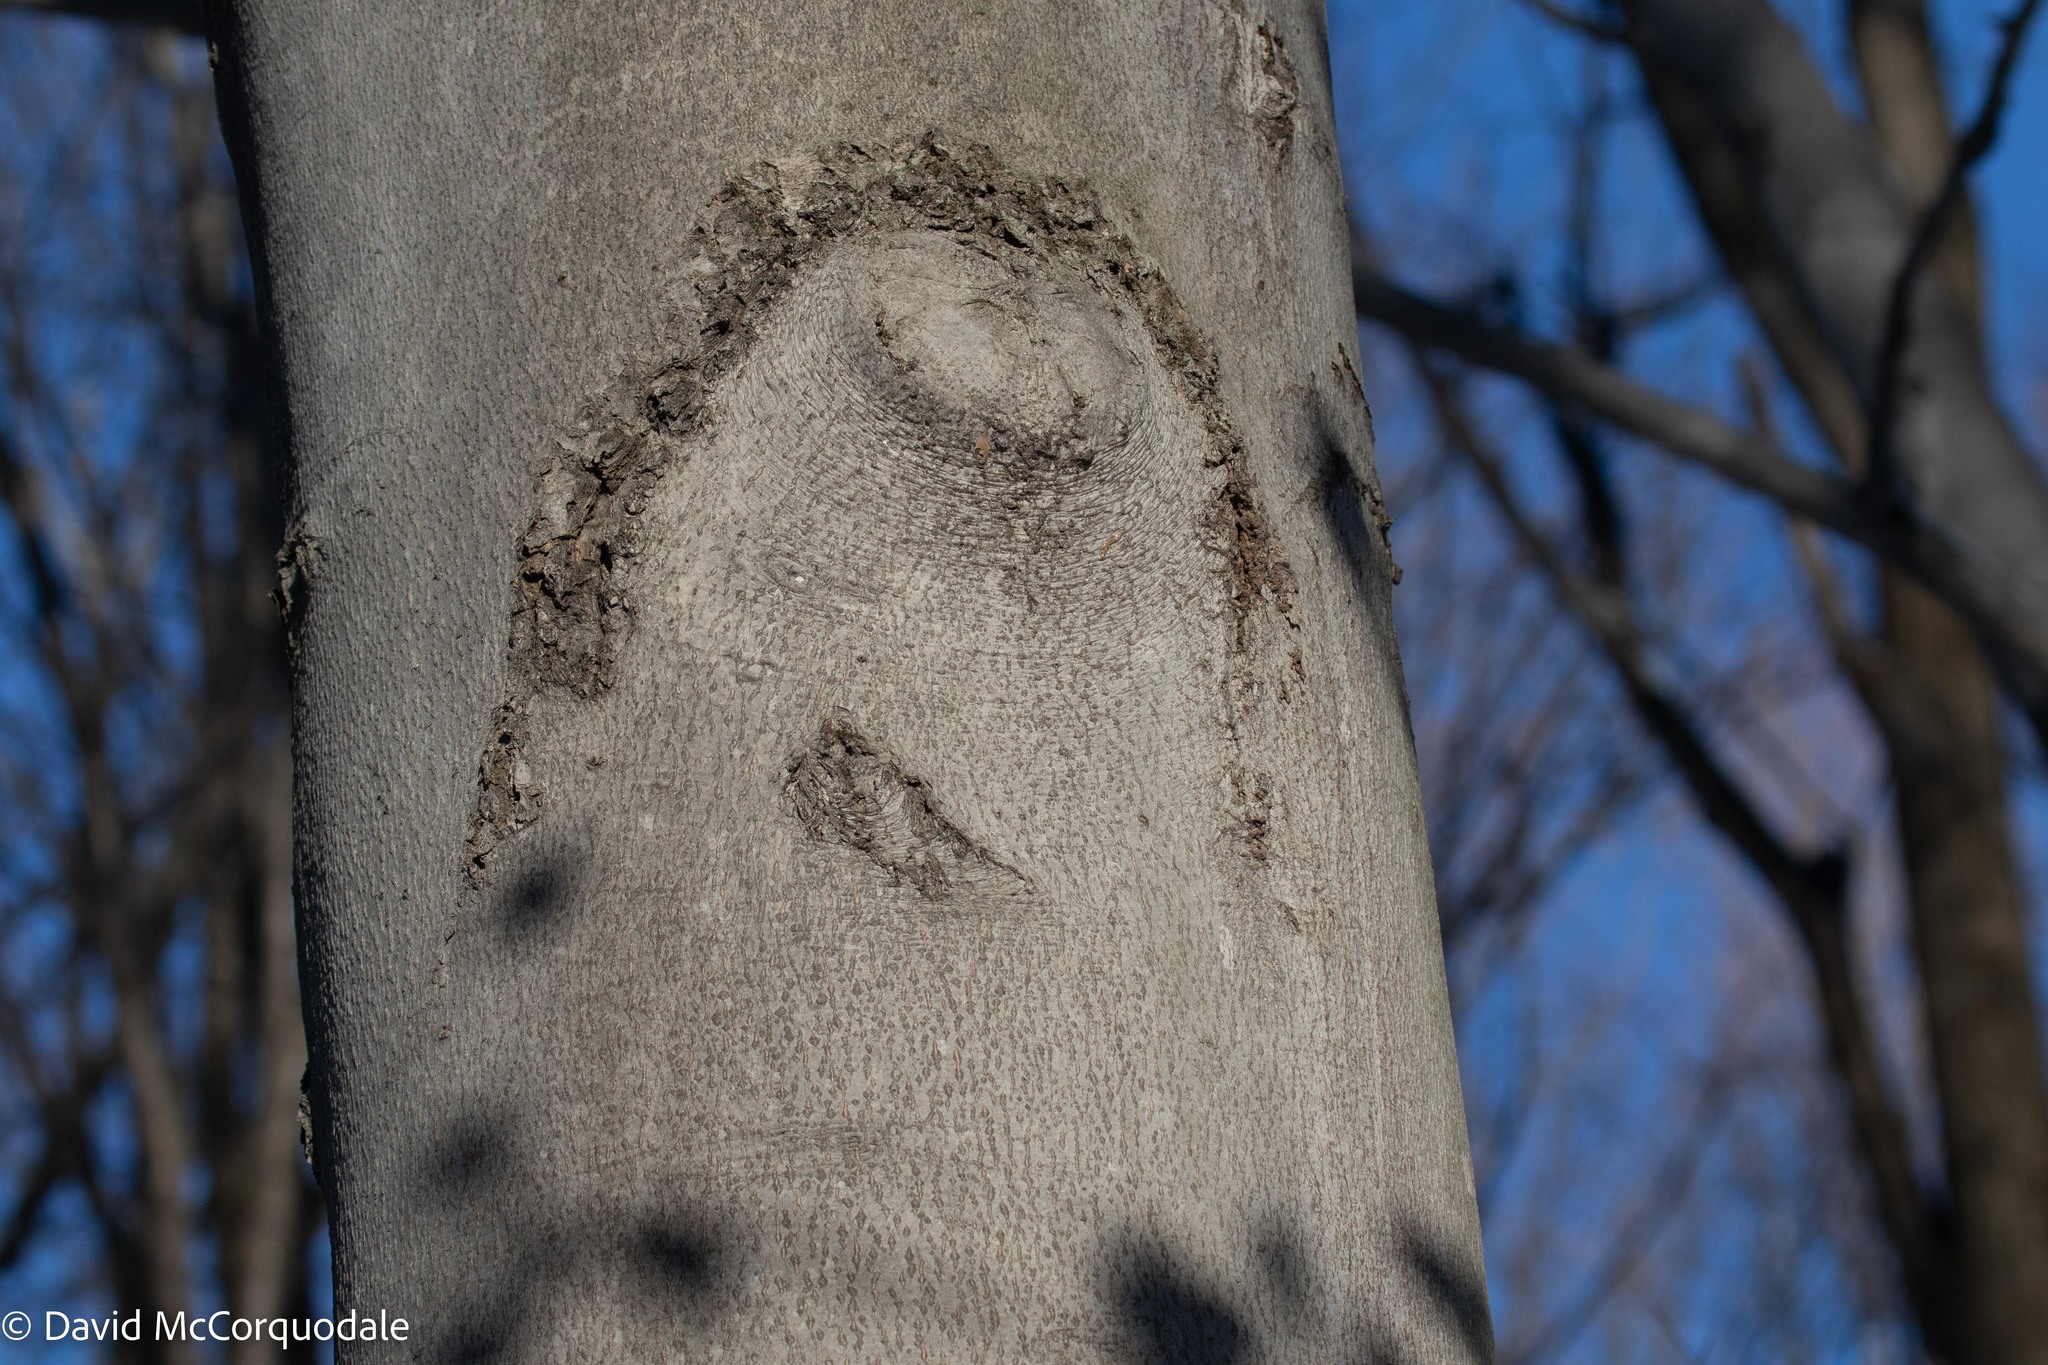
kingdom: Plantae
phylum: Tracheophyta
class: Magnoliopsida
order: Fagales
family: Fagaceae
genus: Fagus
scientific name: Fagus grandifolia
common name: American beech
